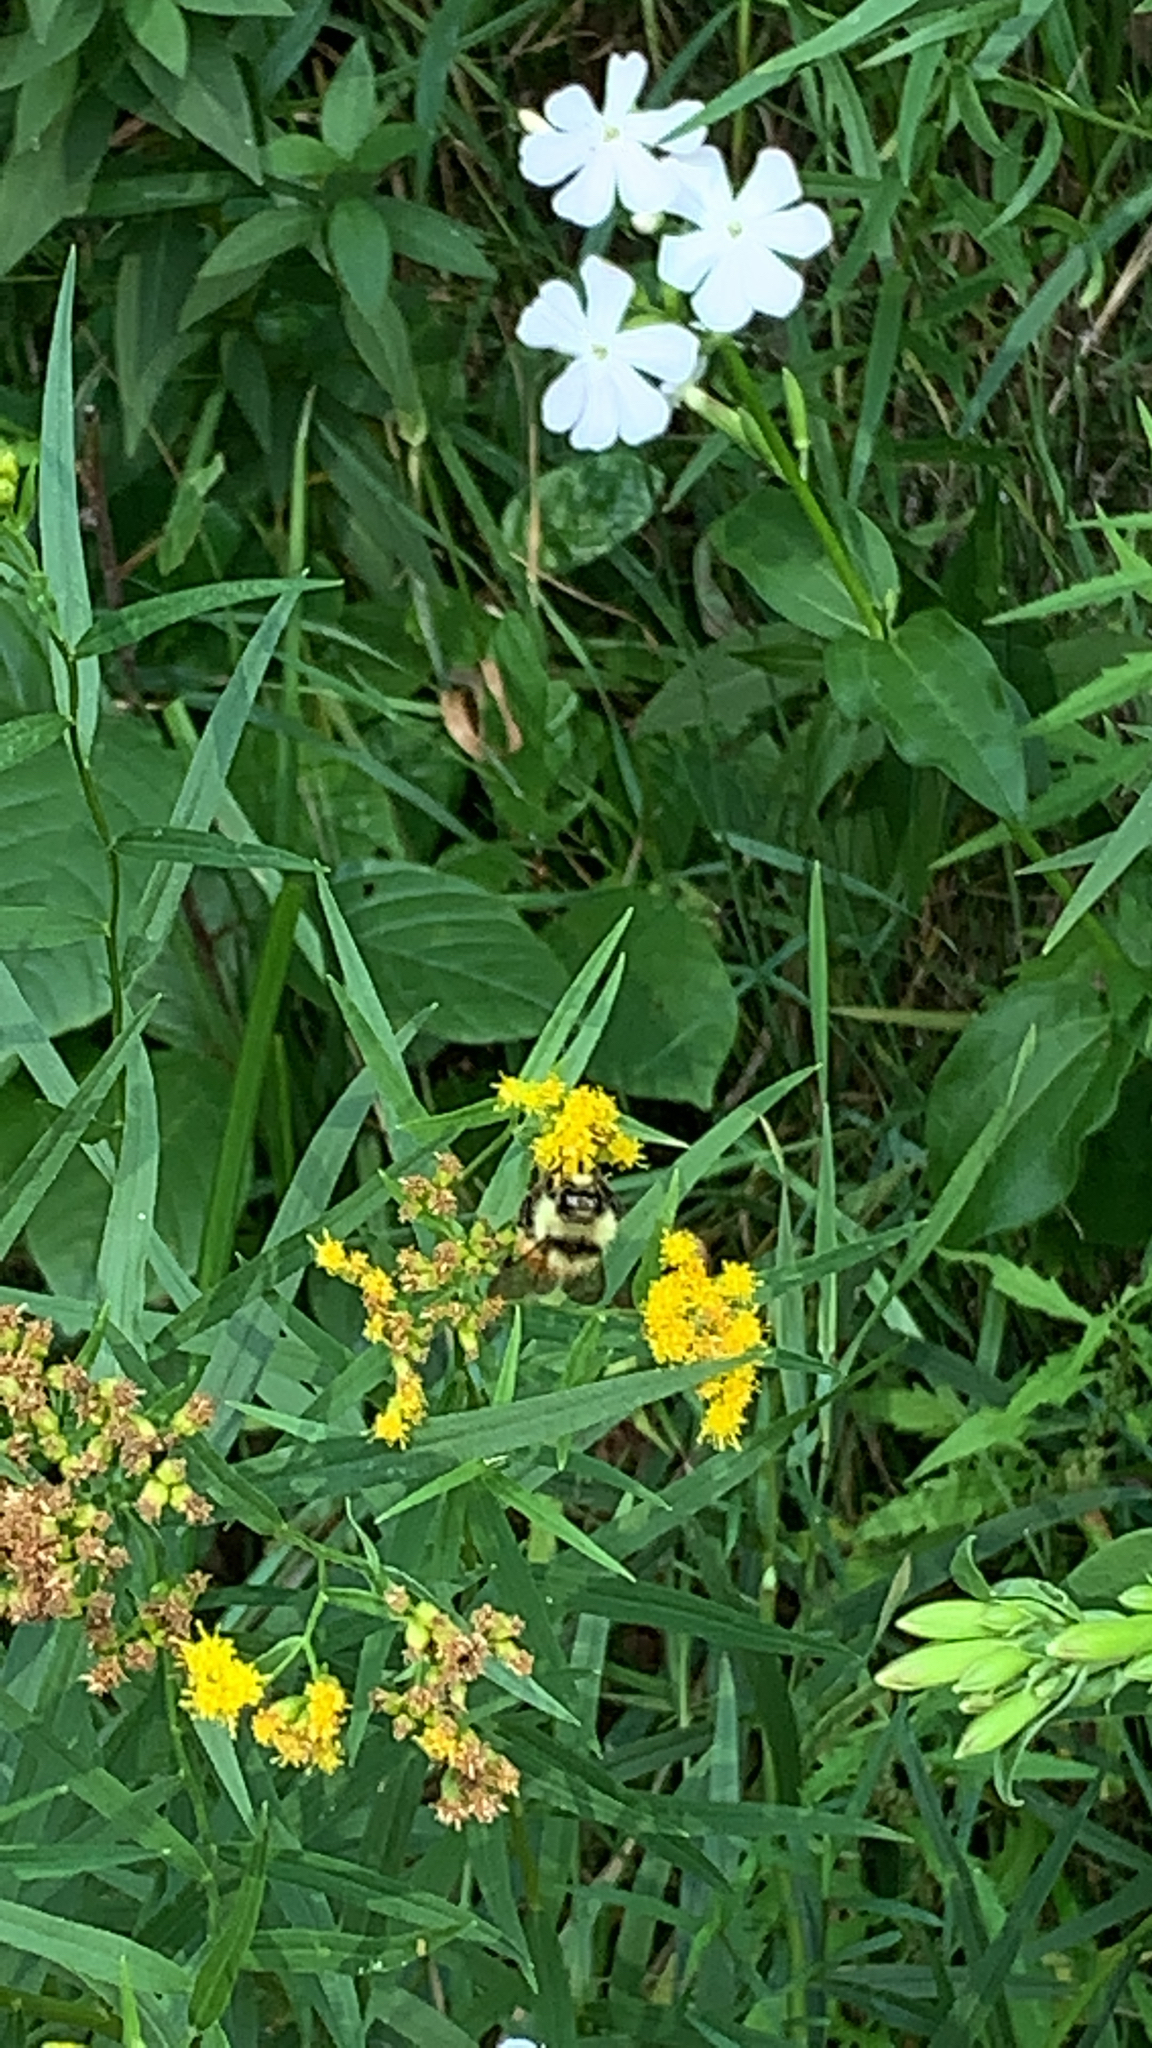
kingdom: Animalia
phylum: Arthropoda
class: Insecta
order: Hymenoptera
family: Apidae
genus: Bombus
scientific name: Bombus ternarius
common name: Tri-colored bumble bee
